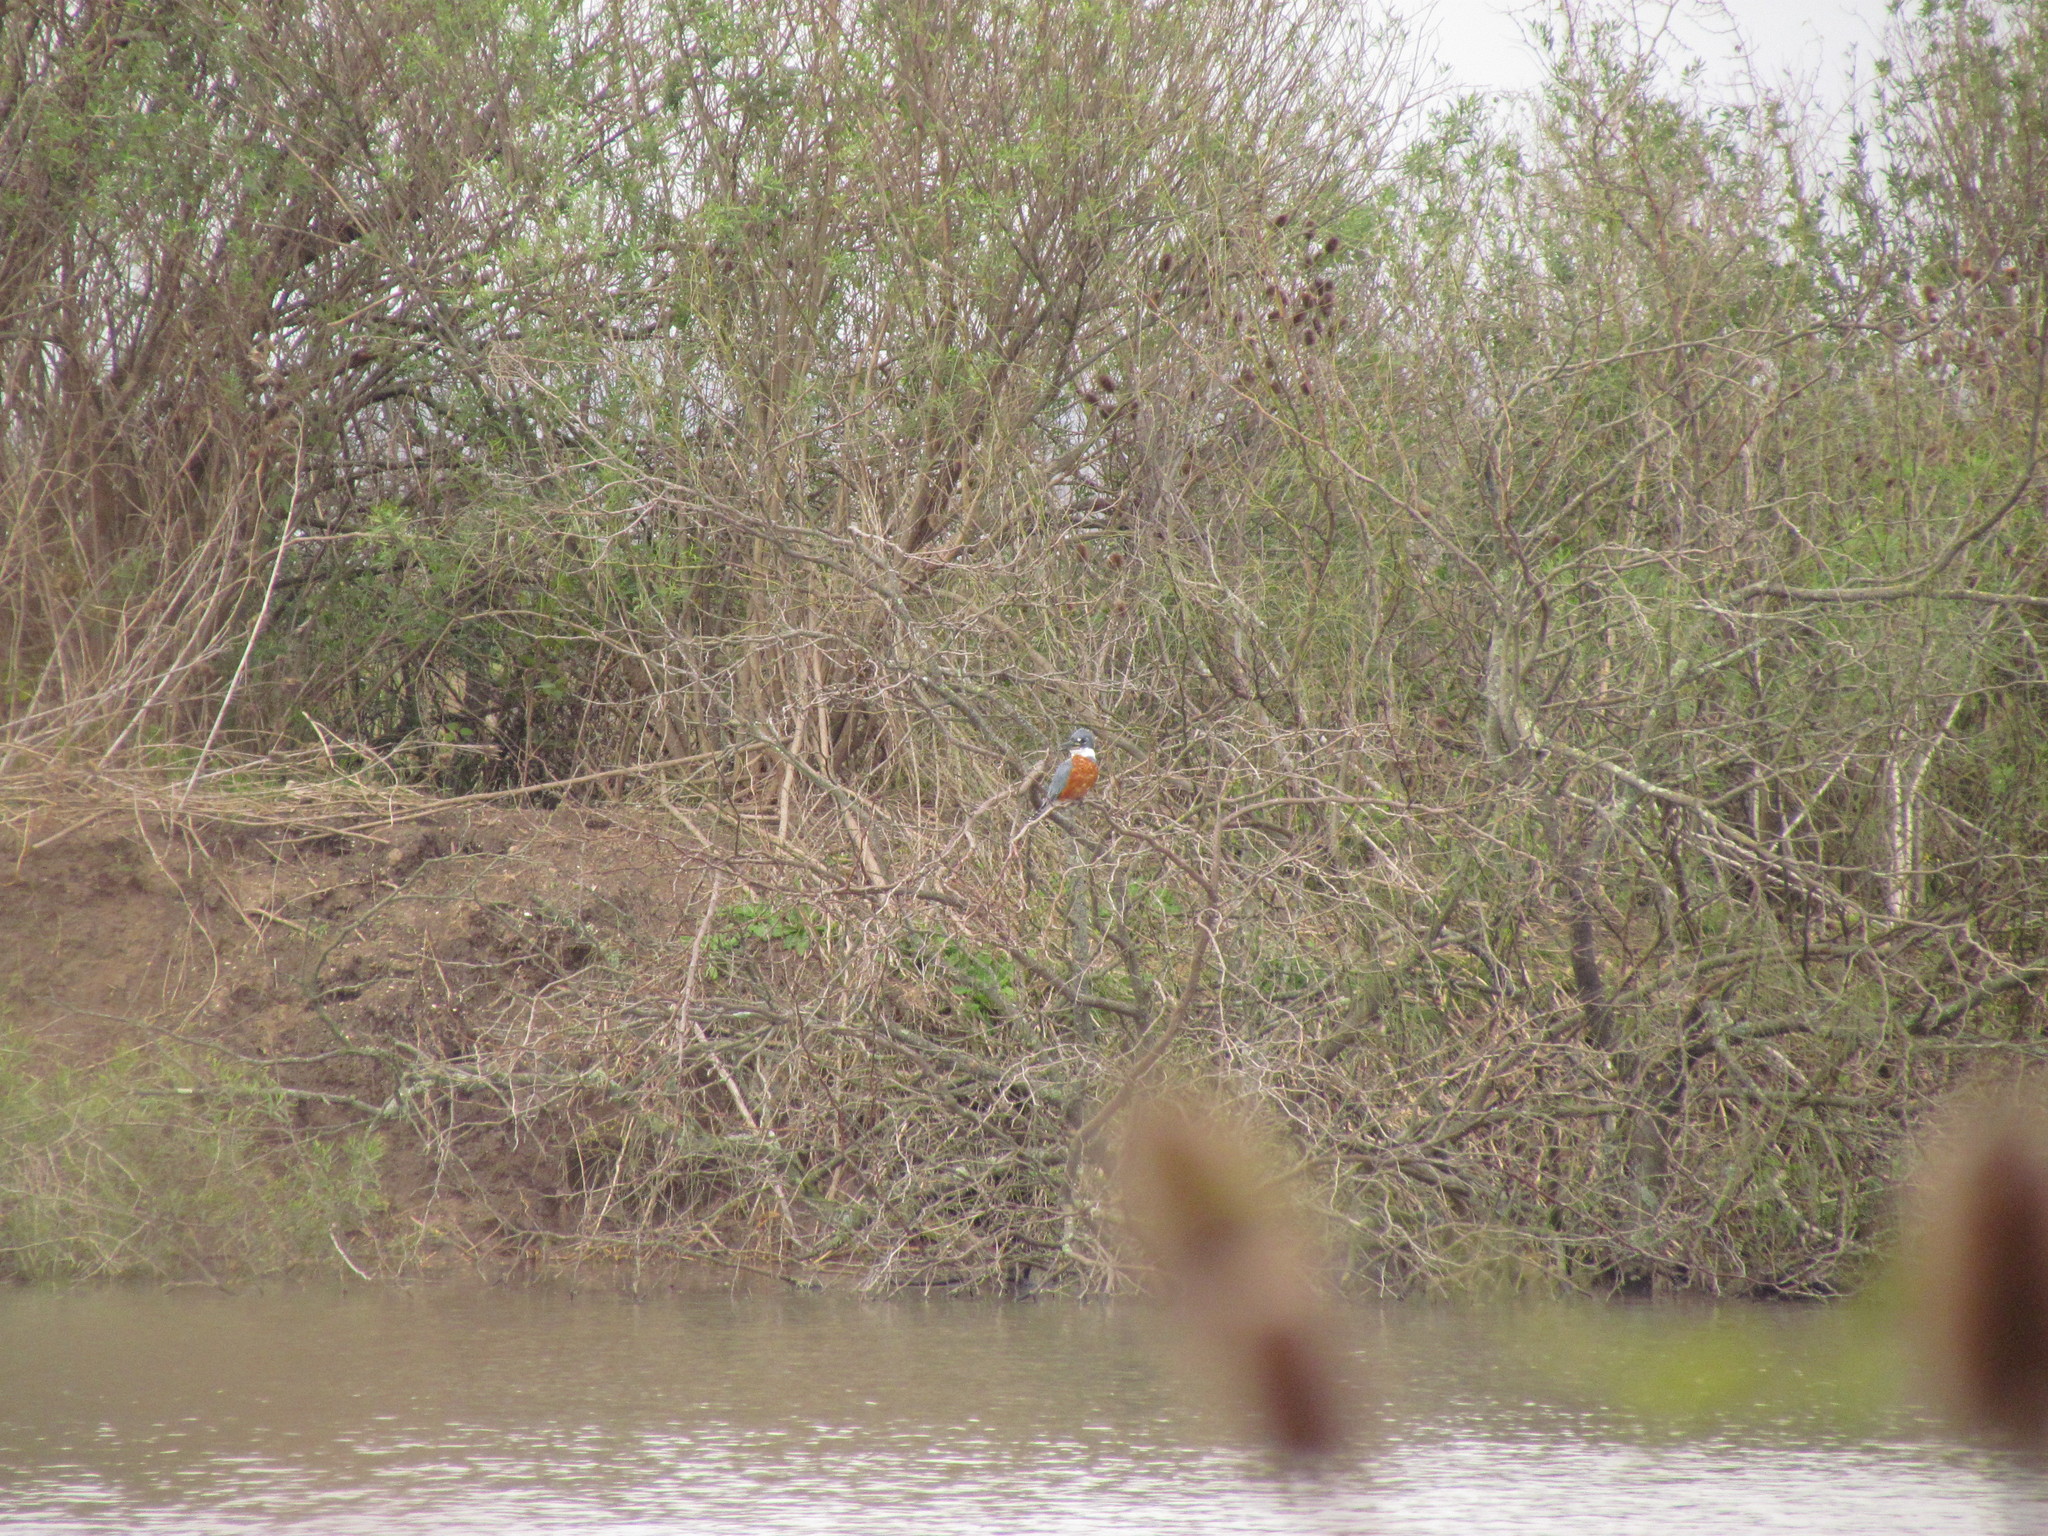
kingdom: Animalia
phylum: Chordata
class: Aves
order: Coraciiformes
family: Alcedinidae
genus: Megaceryle
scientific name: Megaceryle torquata
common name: Ringed kingfisher
